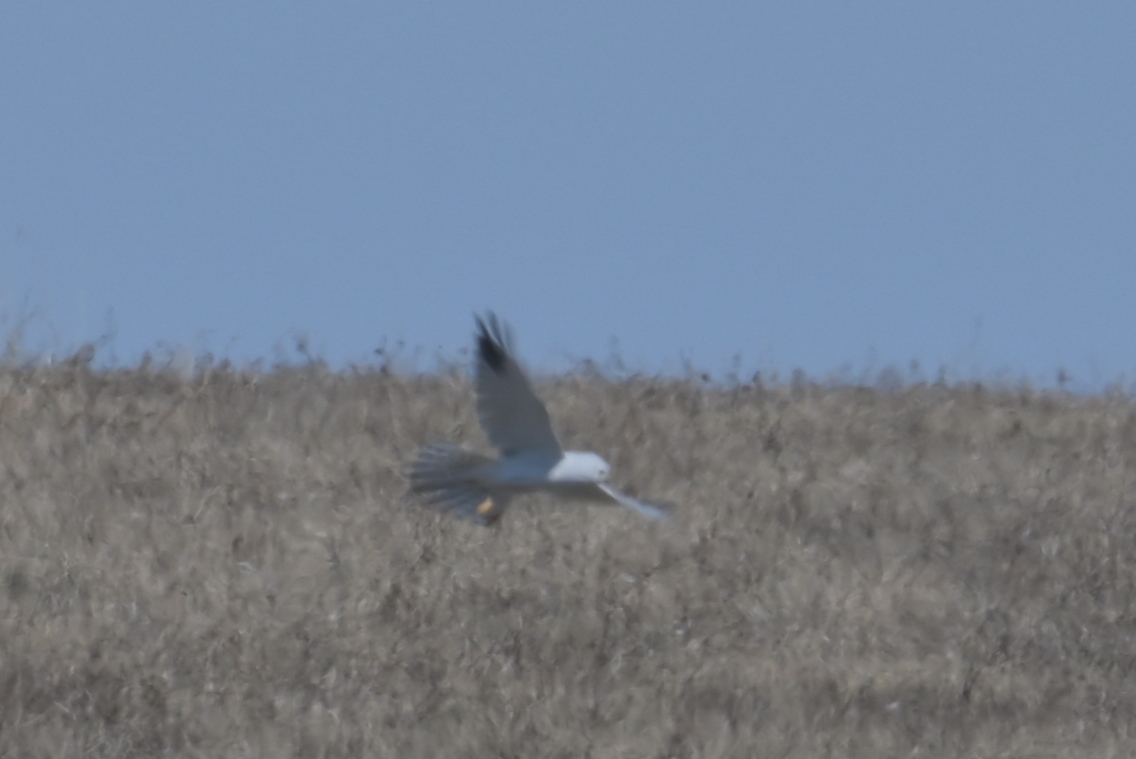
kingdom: Animalia
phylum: Chordata
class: Aves
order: Accipitriformes
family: Accipitridae
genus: Circus
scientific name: Circus macrourus
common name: Pallid harrier
